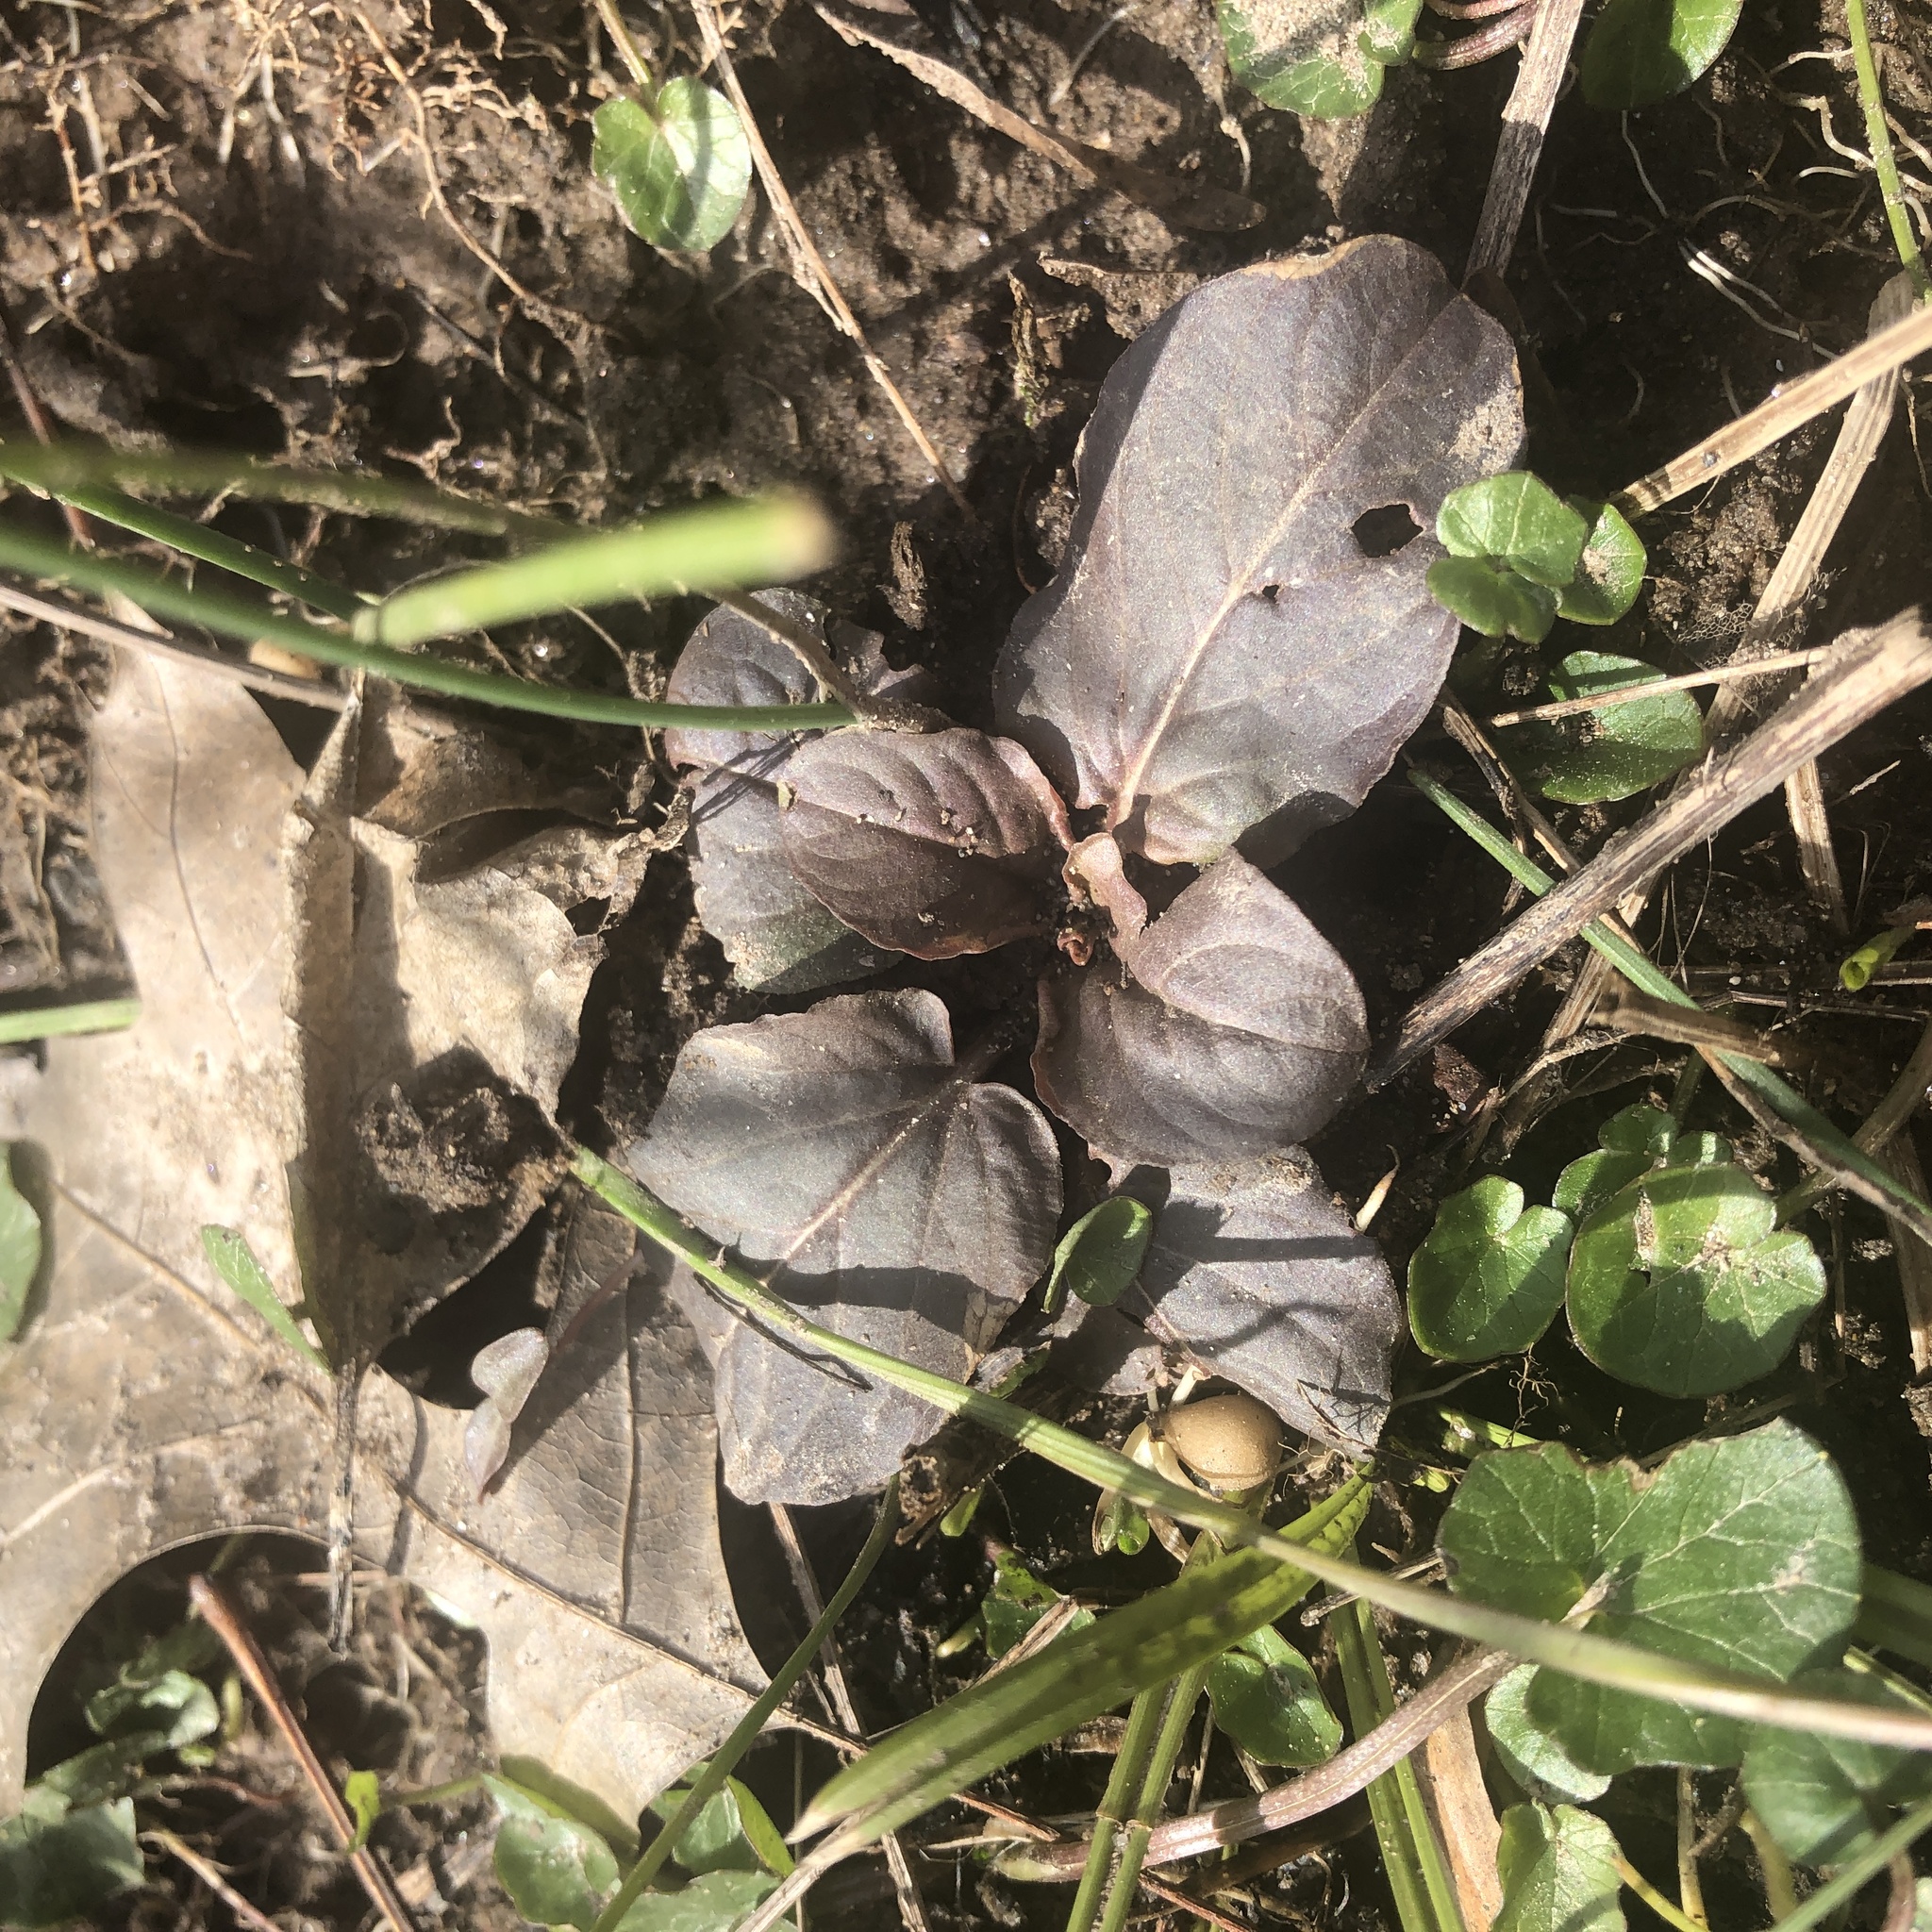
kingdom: Plantae
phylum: Tracheophyta
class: Magnoliopsida
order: Ericales
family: Primulaceae
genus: Lysimachia
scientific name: Lysimachia ciliata
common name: Fringed loosestrife
